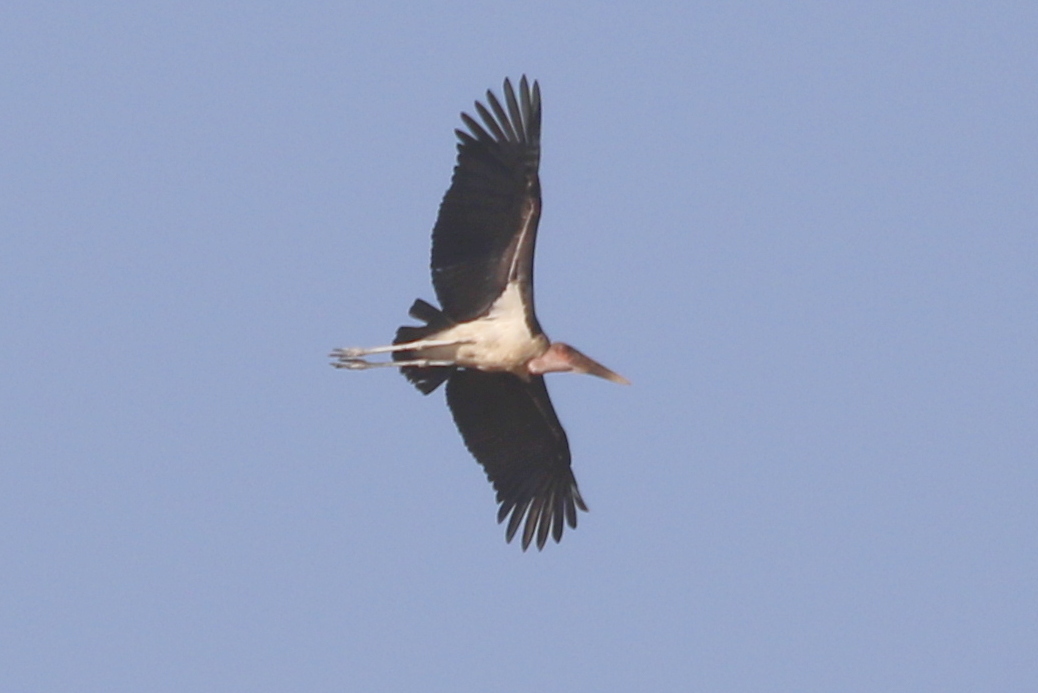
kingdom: Animalia
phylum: Chordata
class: Aves
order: Ciconiiformes
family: Ciconiidae
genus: Leptoptilos
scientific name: Leptoptilos crumenifer
